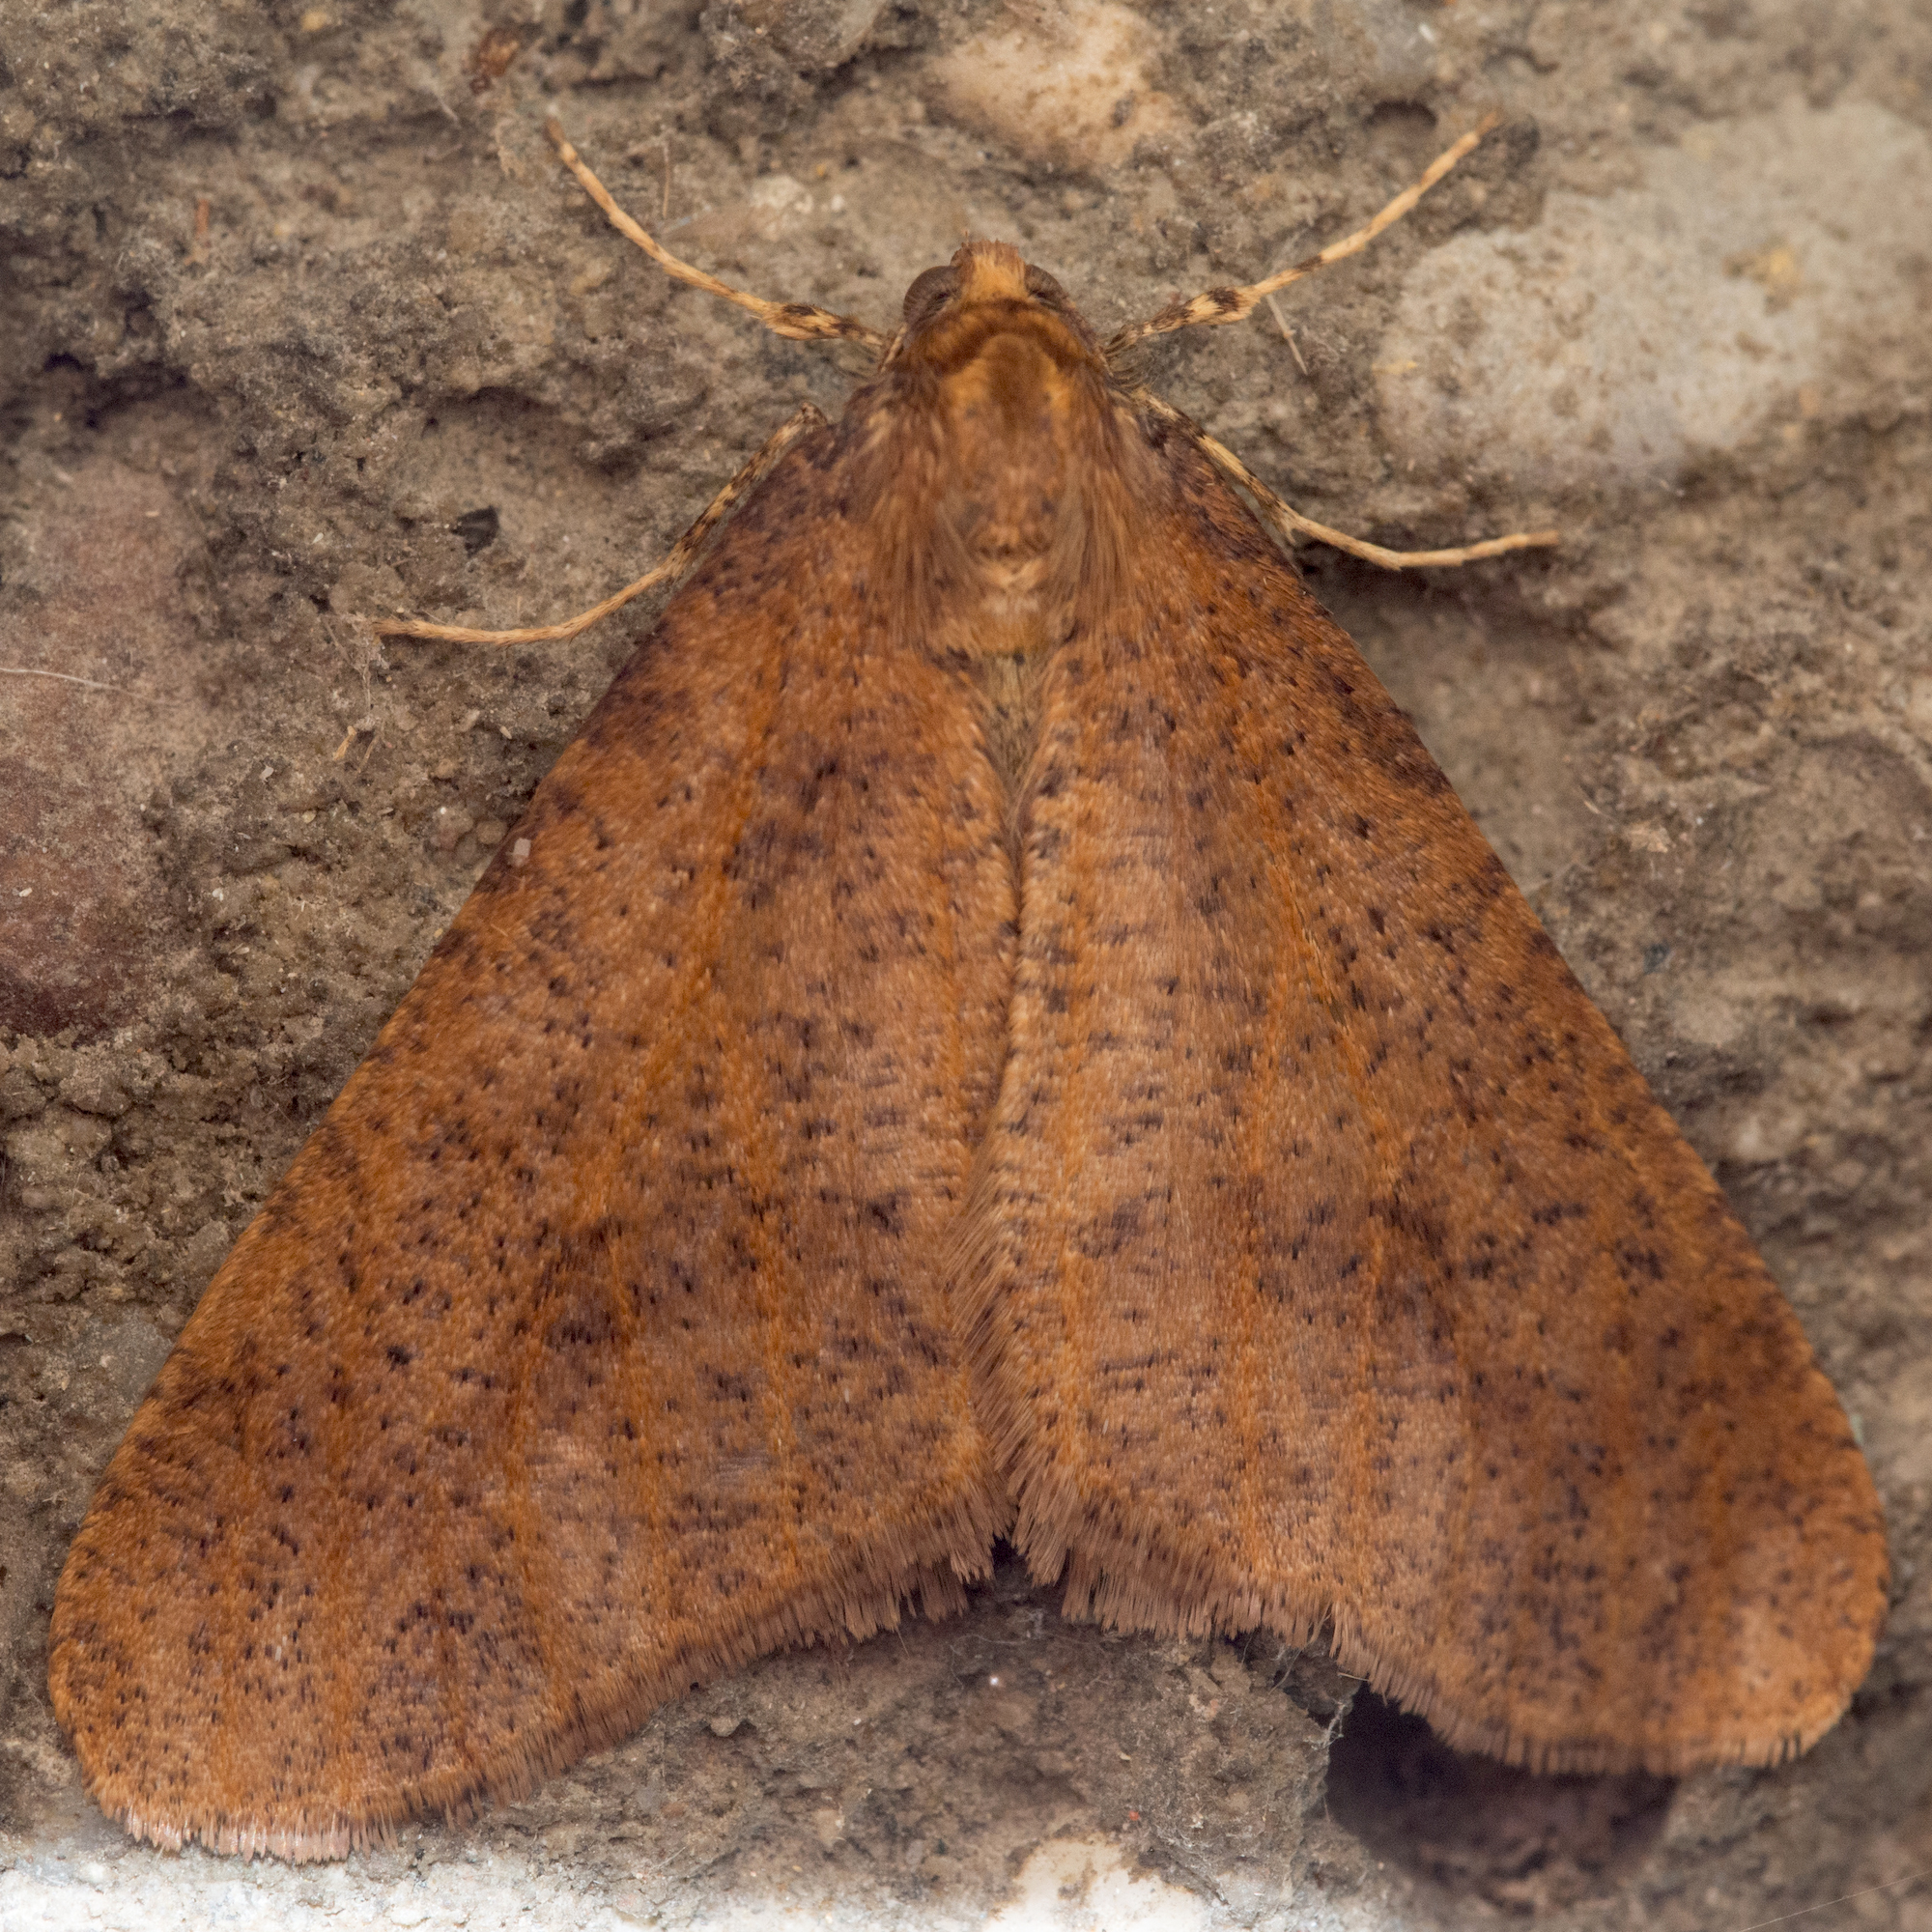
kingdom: Animalia
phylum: Arthropoda
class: Insecta
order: Lepidoptera
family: Geometridae
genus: Erannis
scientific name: Erannis defoliaria
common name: Mottled umber
